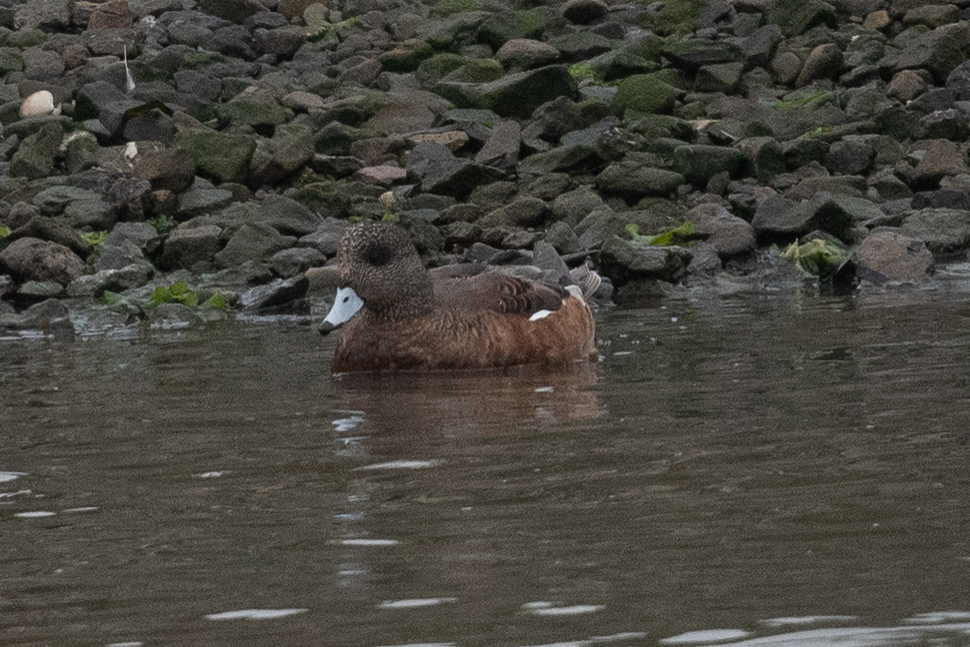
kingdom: Animalia
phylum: Chordata
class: Aves
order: Anseriformes
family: Anatidae
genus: Mareca
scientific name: Mareca americana
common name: American wigeon
